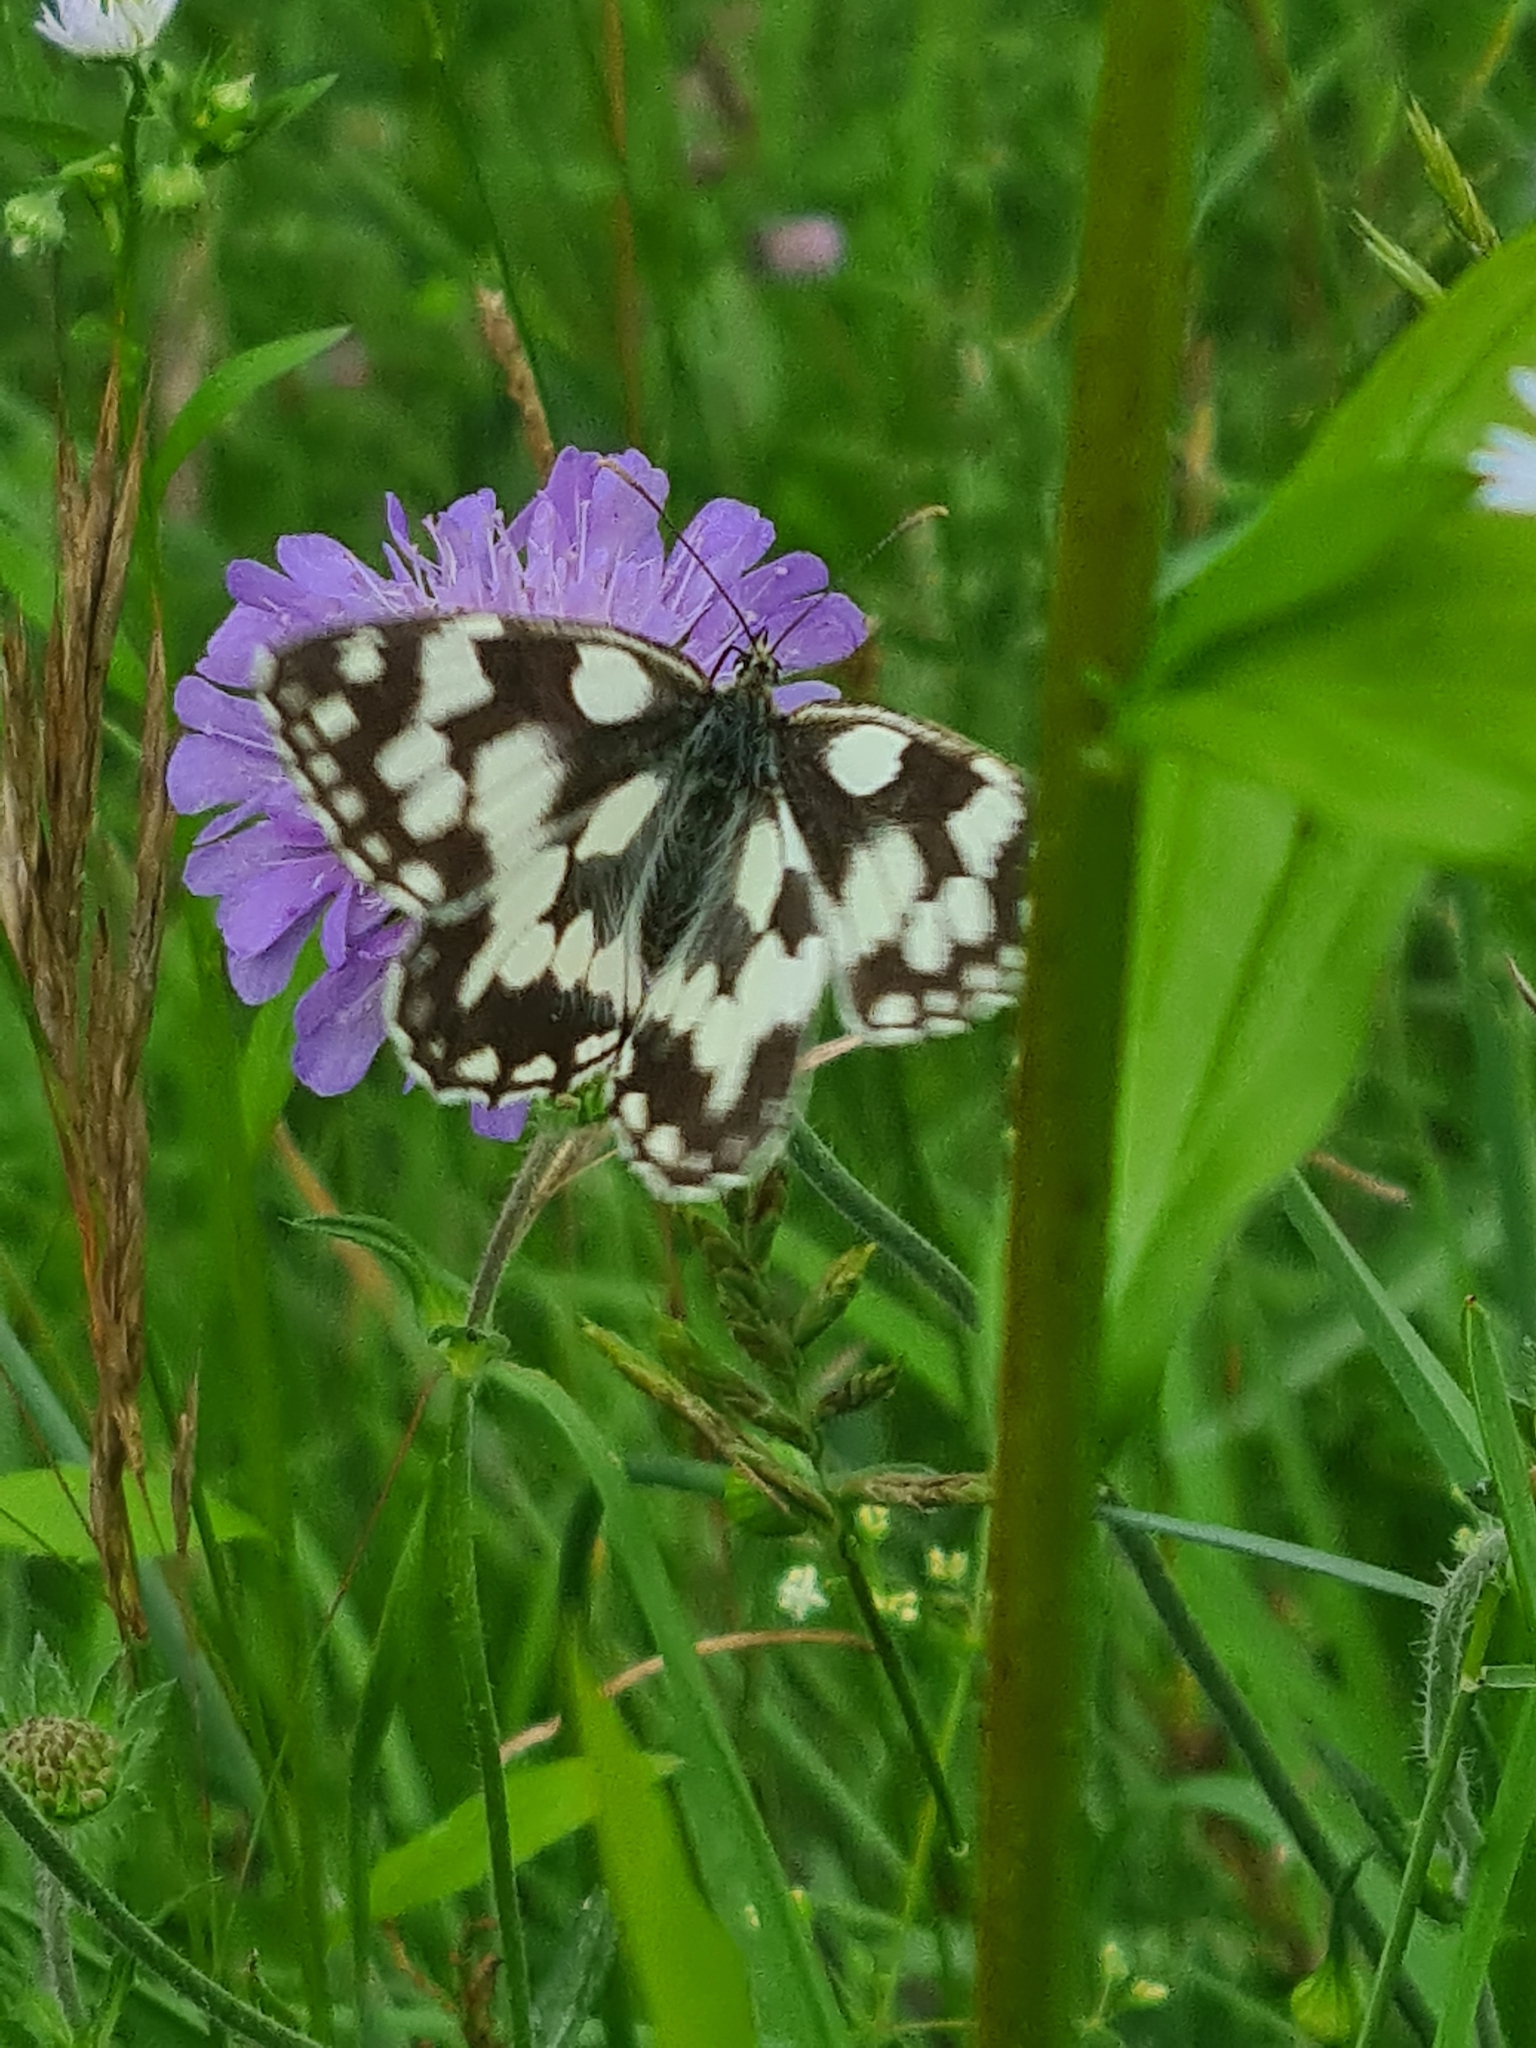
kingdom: Animalia
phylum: Arthropoda
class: Insecta
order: Lepidoptera
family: Nymphalidae
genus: Melanargia
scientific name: Melanargia galathea
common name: Marbled white
